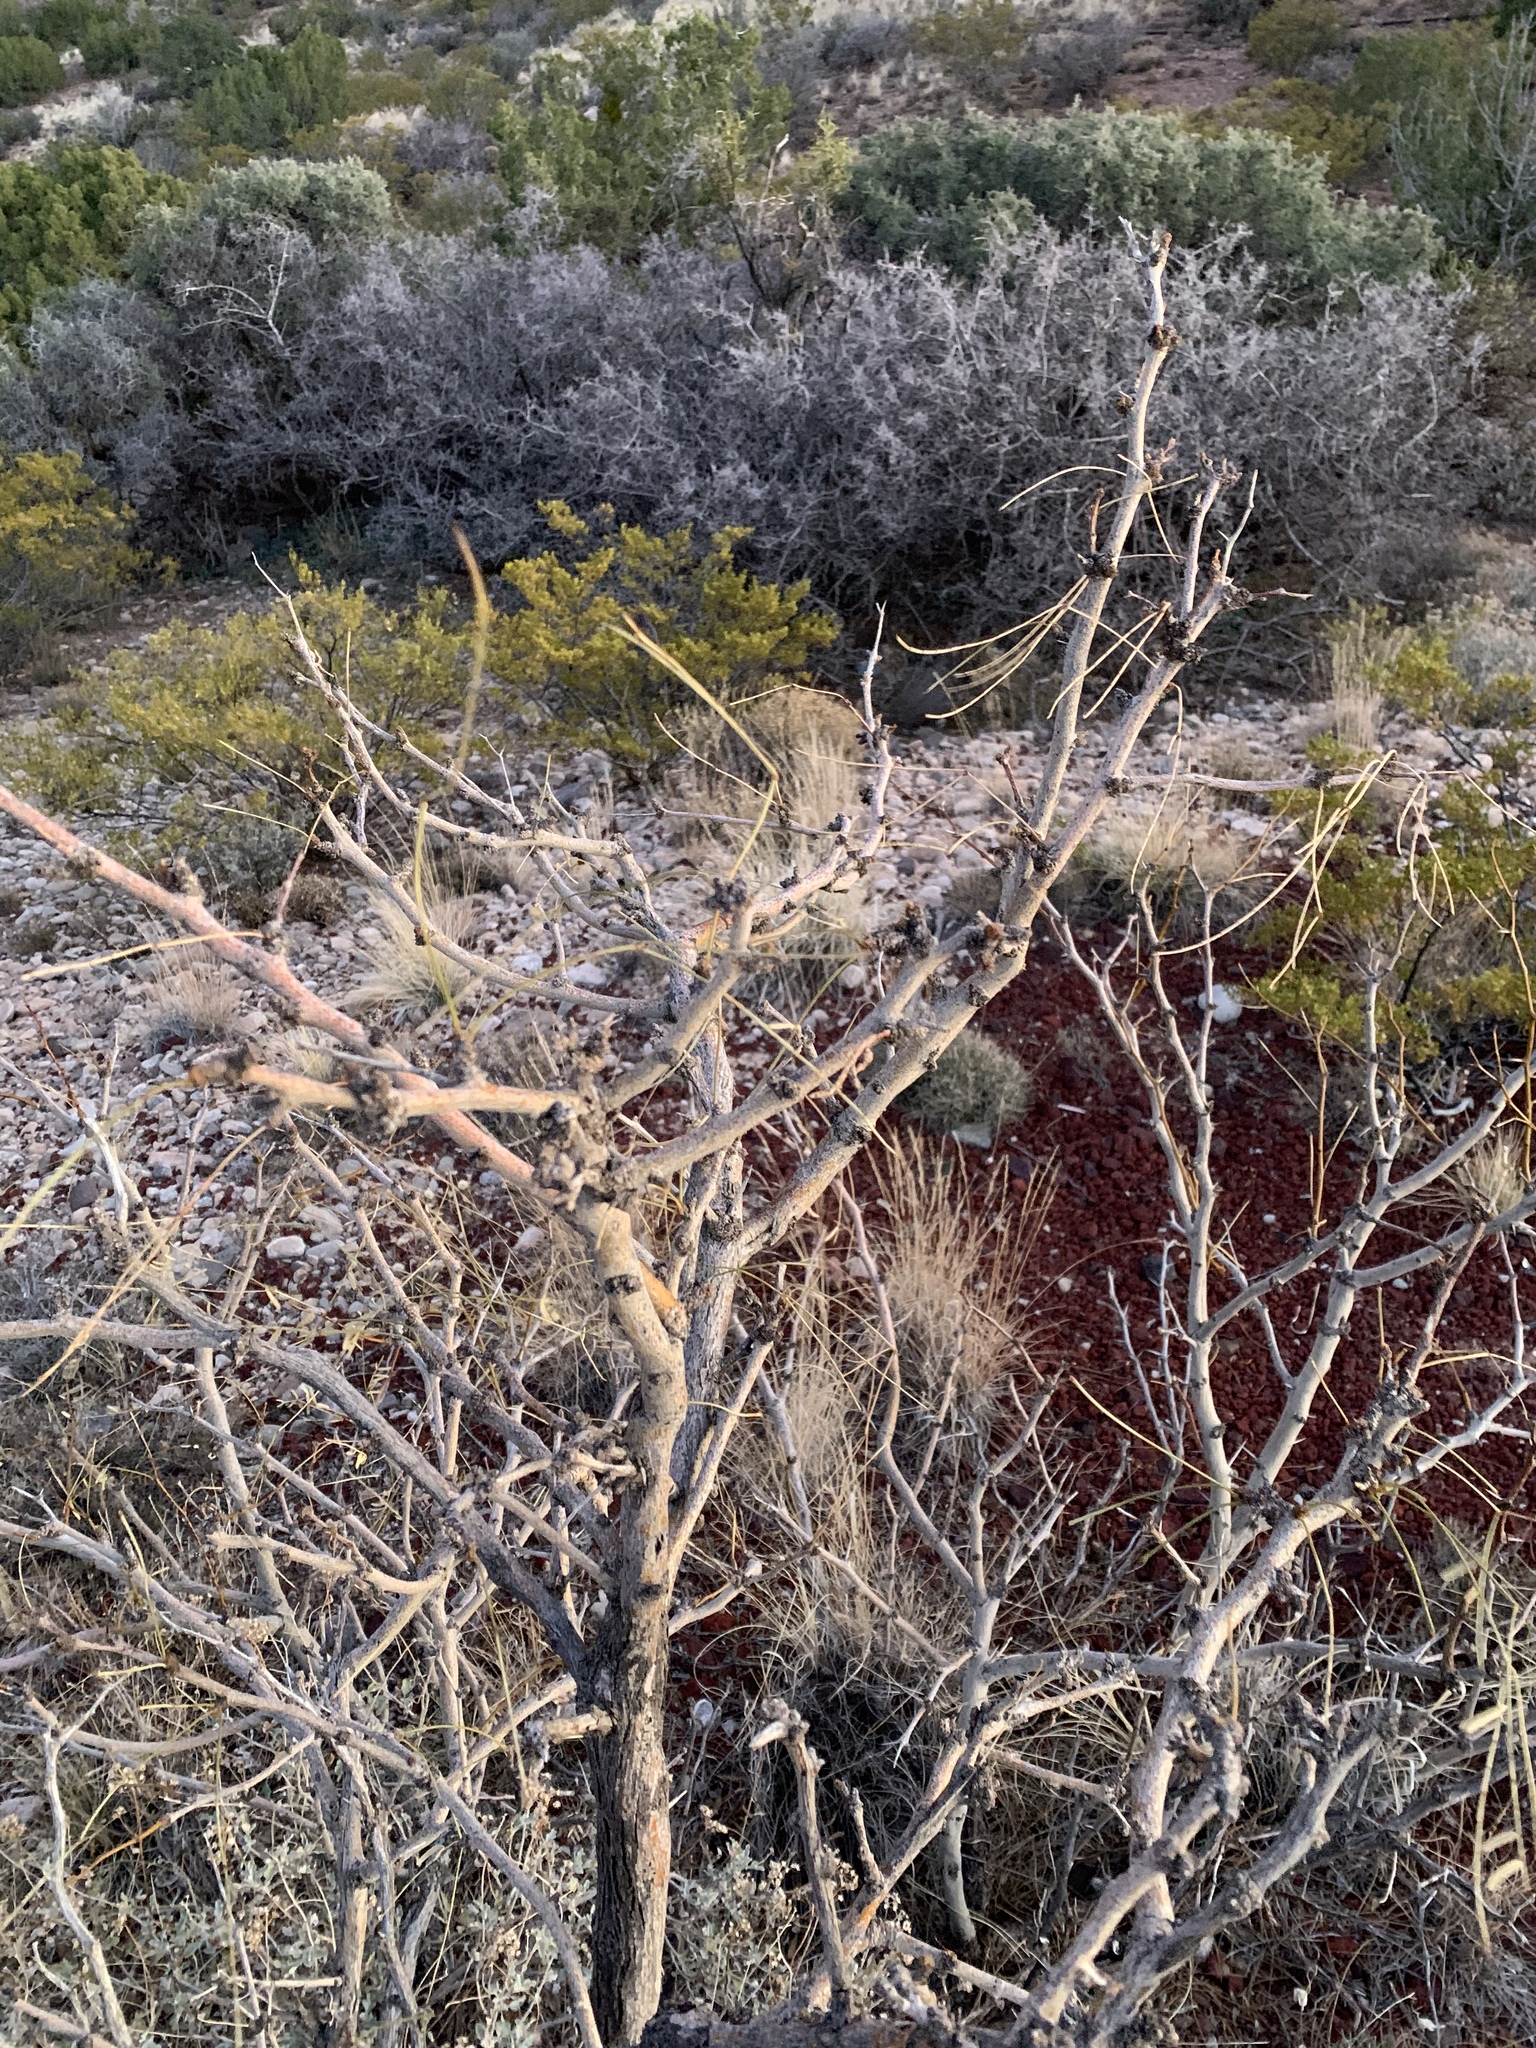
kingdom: Plantae
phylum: Tracheophyta
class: Magnoliopsida
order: Fabales
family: Fabaceae
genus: Prosopis
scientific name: Prosopis glandulosa
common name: Honey mesquite
